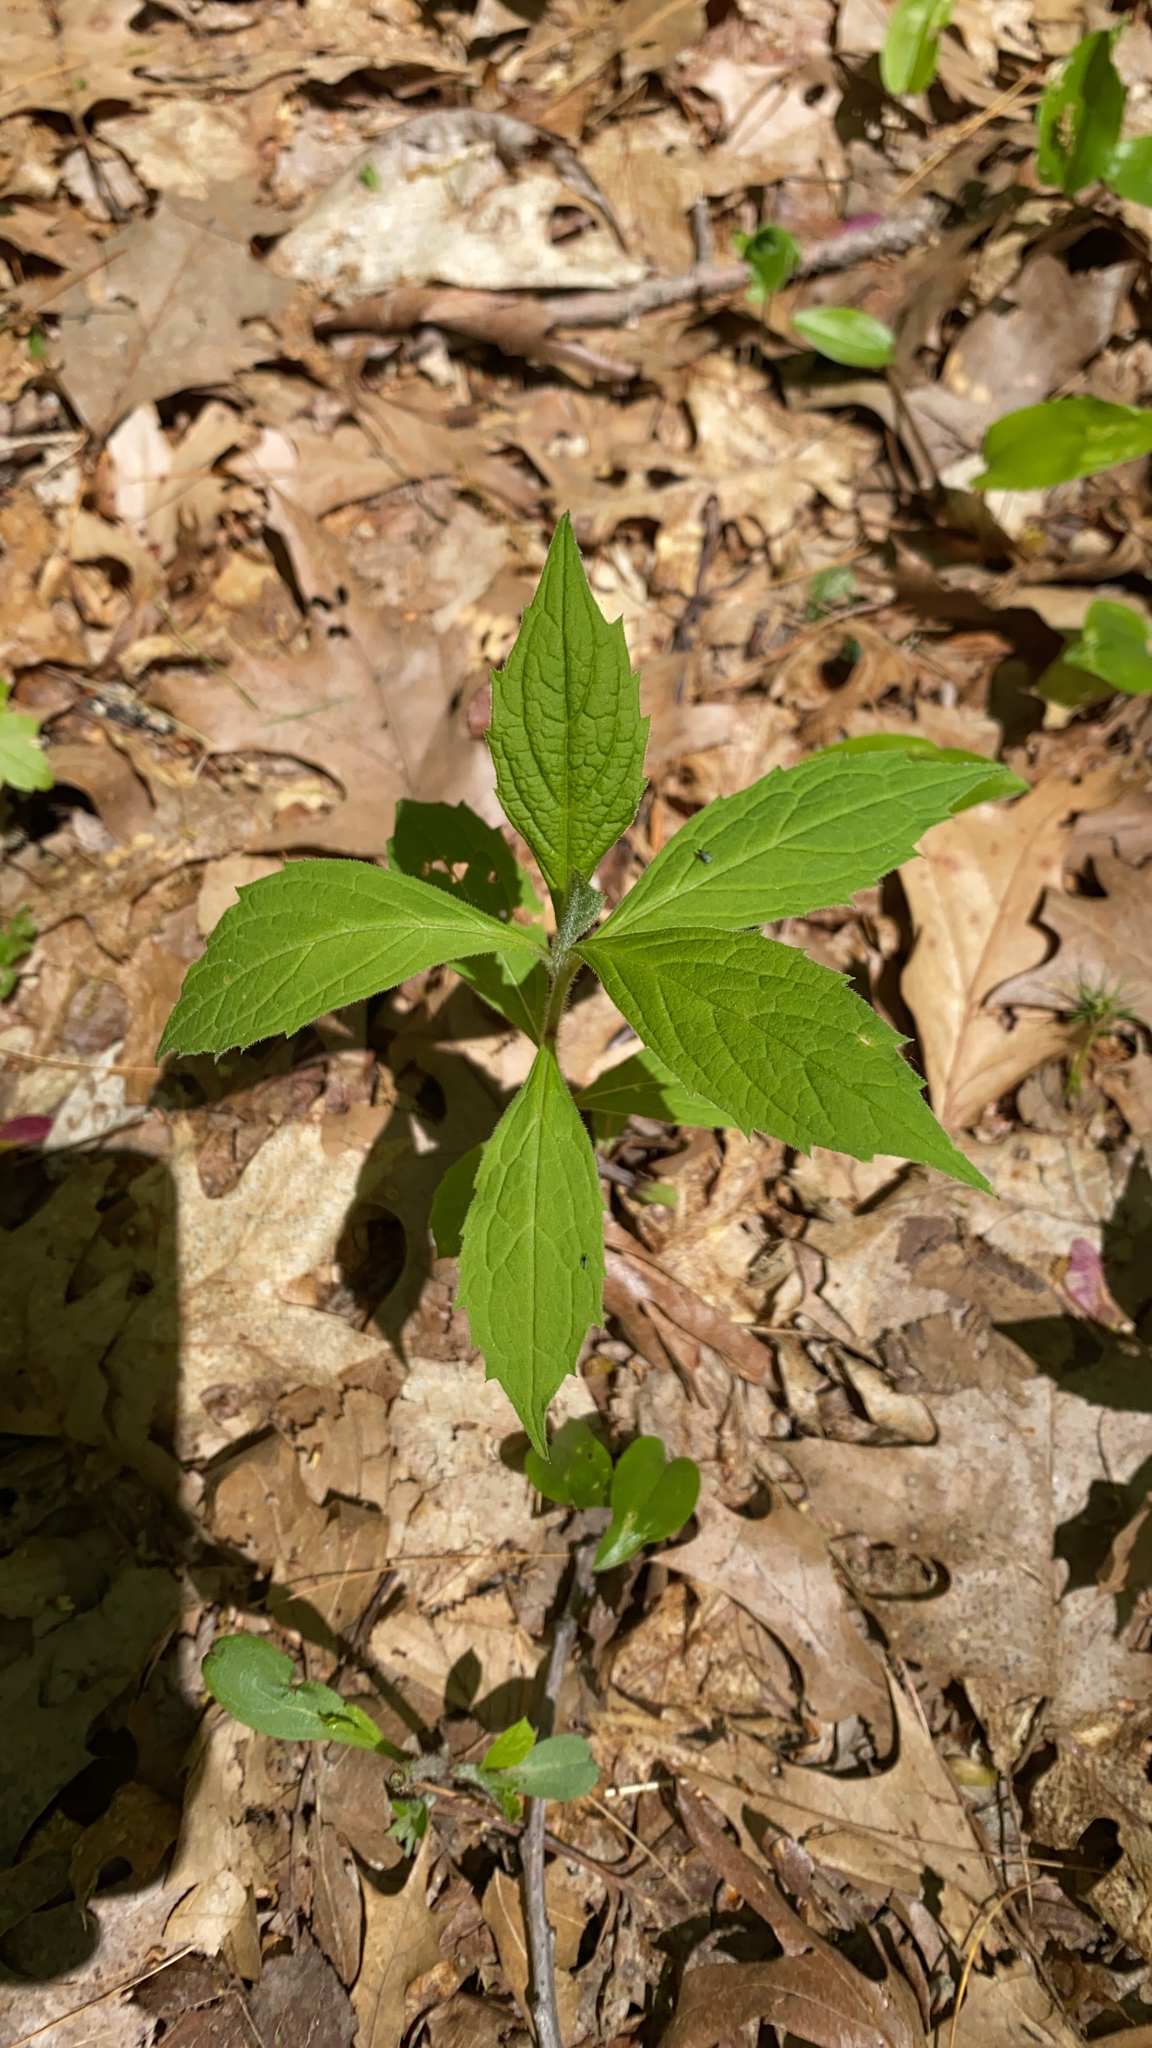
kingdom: Plantae
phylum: Tracheophyta
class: Magnoliopsida
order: Asterales
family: Asteraceae
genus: Oclemena
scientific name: Oclemena acuminata
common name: Mountain aster
